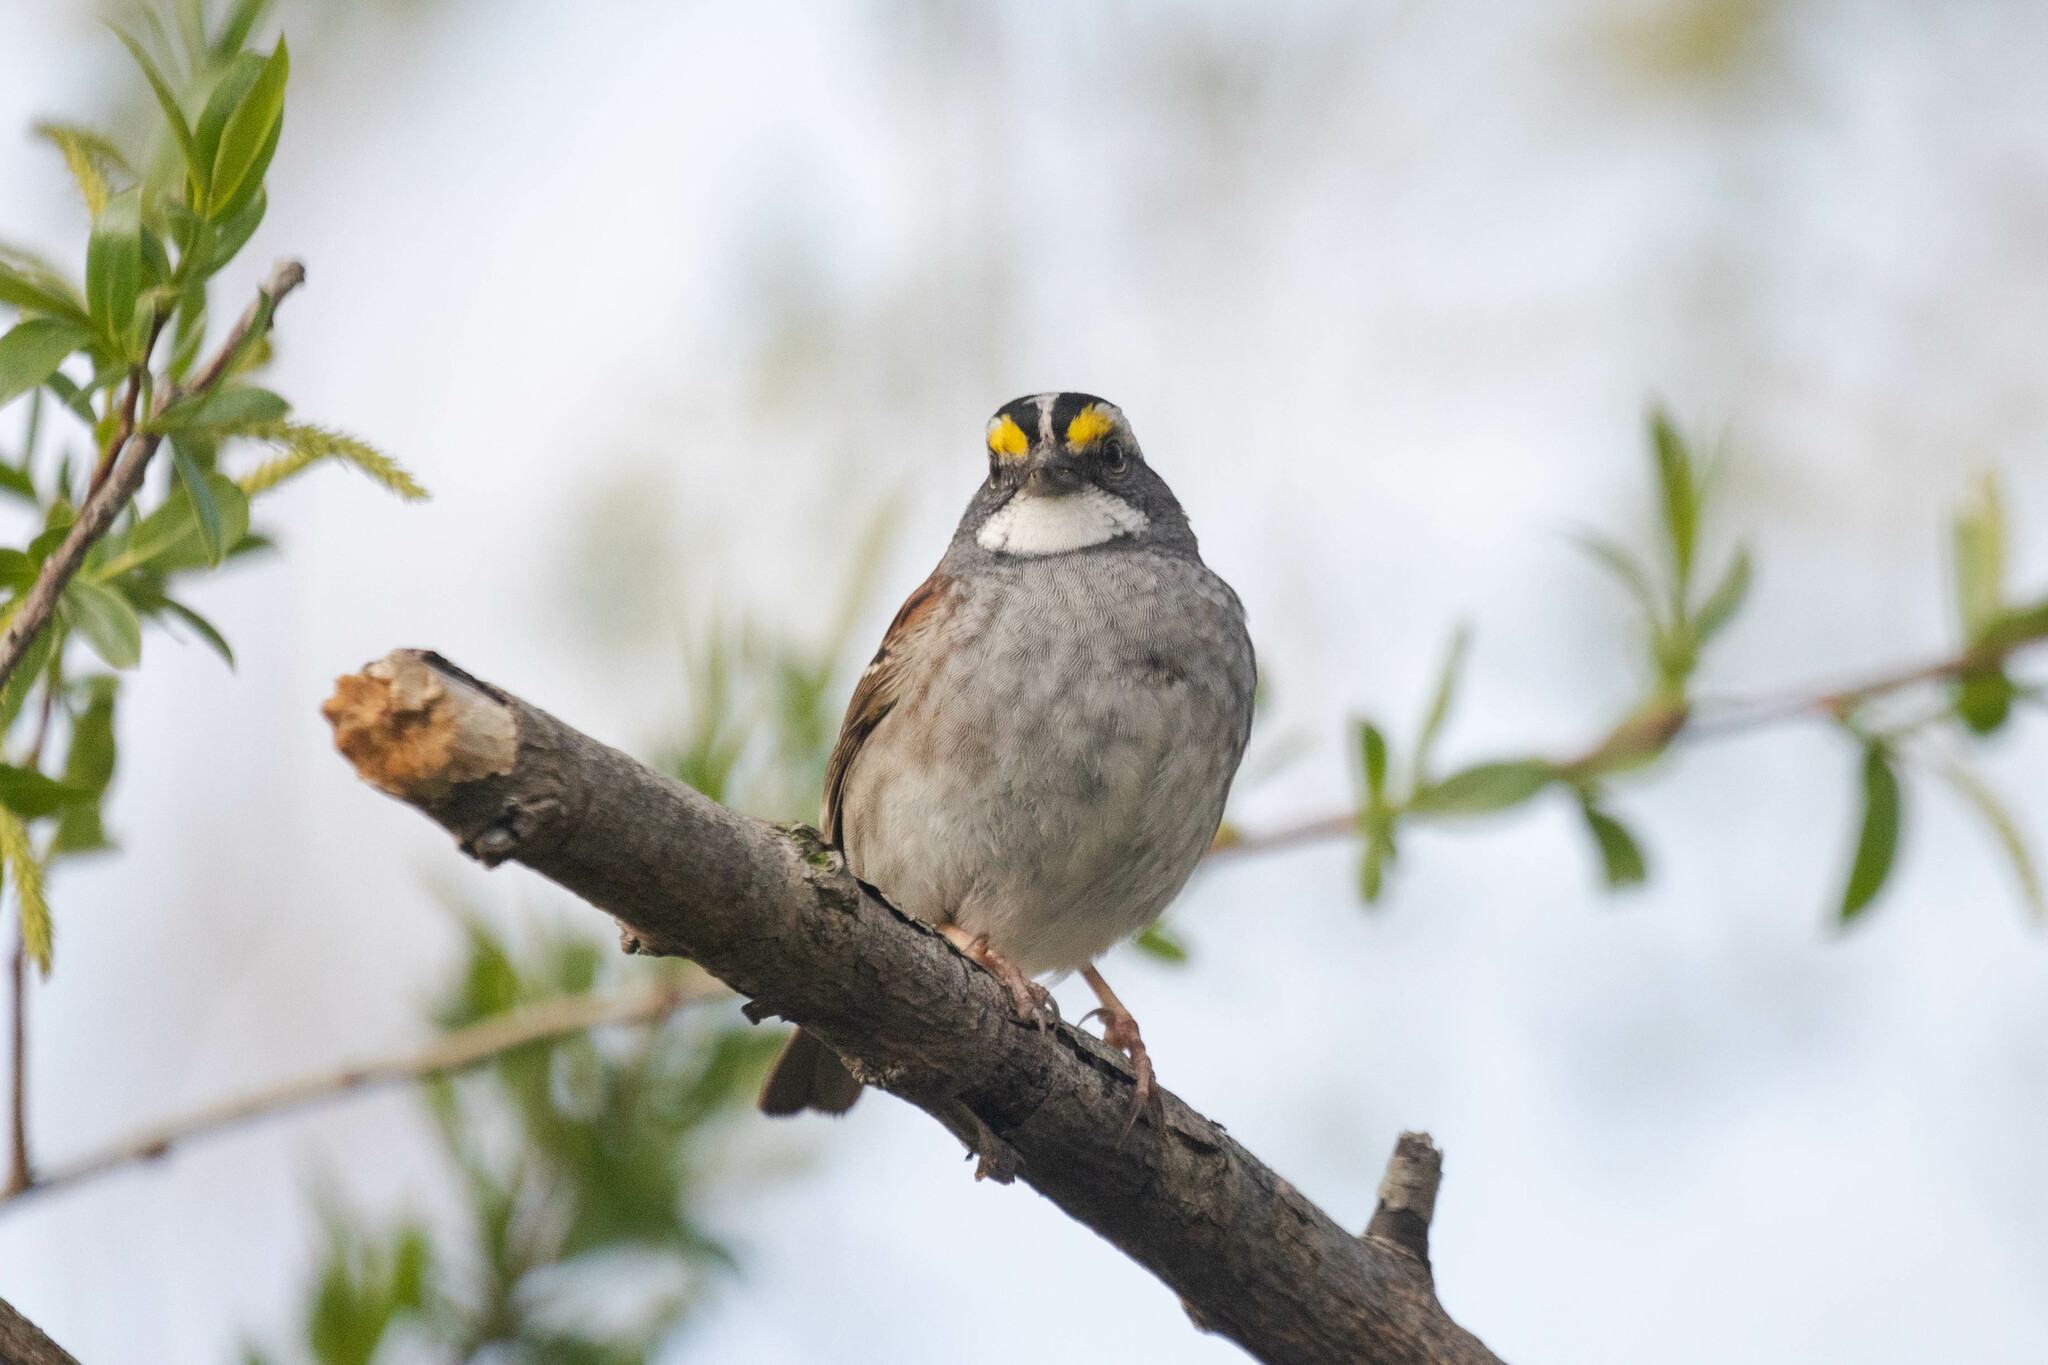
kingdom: Animalia
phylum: Chordata
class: Aves
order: Passeriformes
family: Passerellidae
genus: Zonotrichia
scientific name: Zonotrichia albicollis
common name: White-throated sparrow
